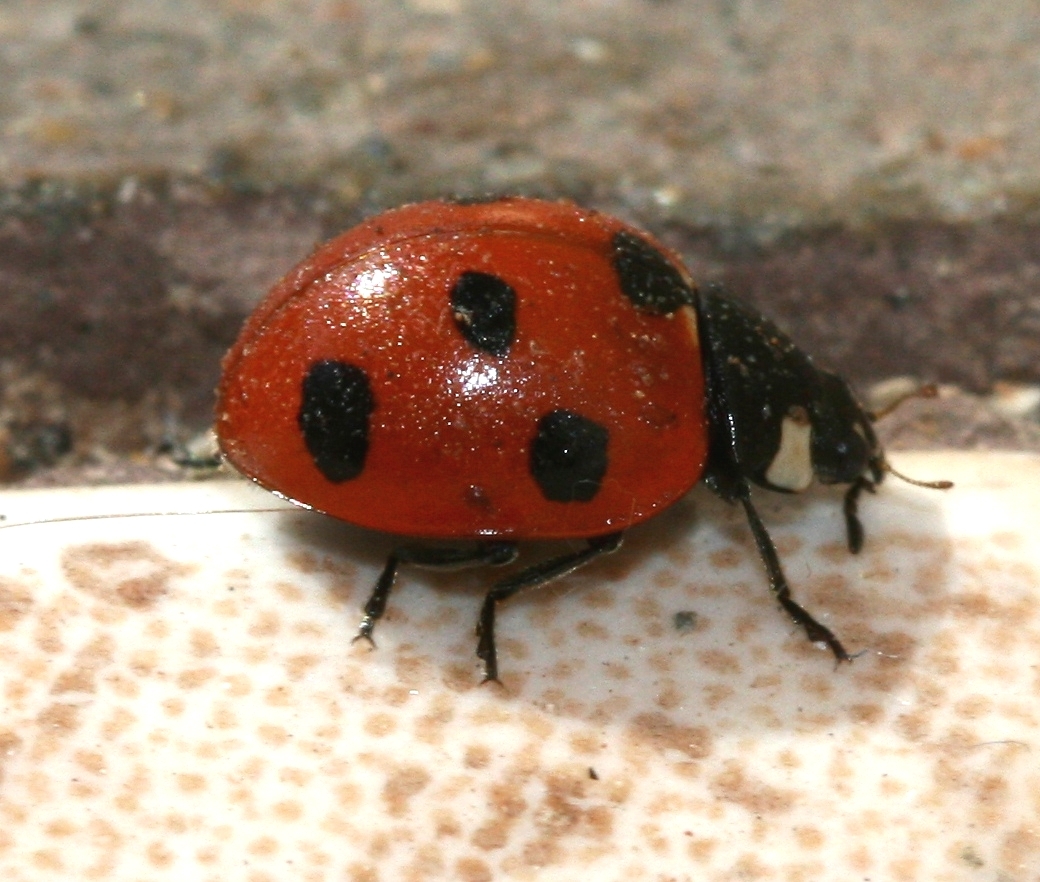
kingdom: Animalia
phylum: Arthropoda
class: Insecta
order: Coleoptera
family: Coccinellidae
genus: Coccinella
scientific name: Coccinella algerica
